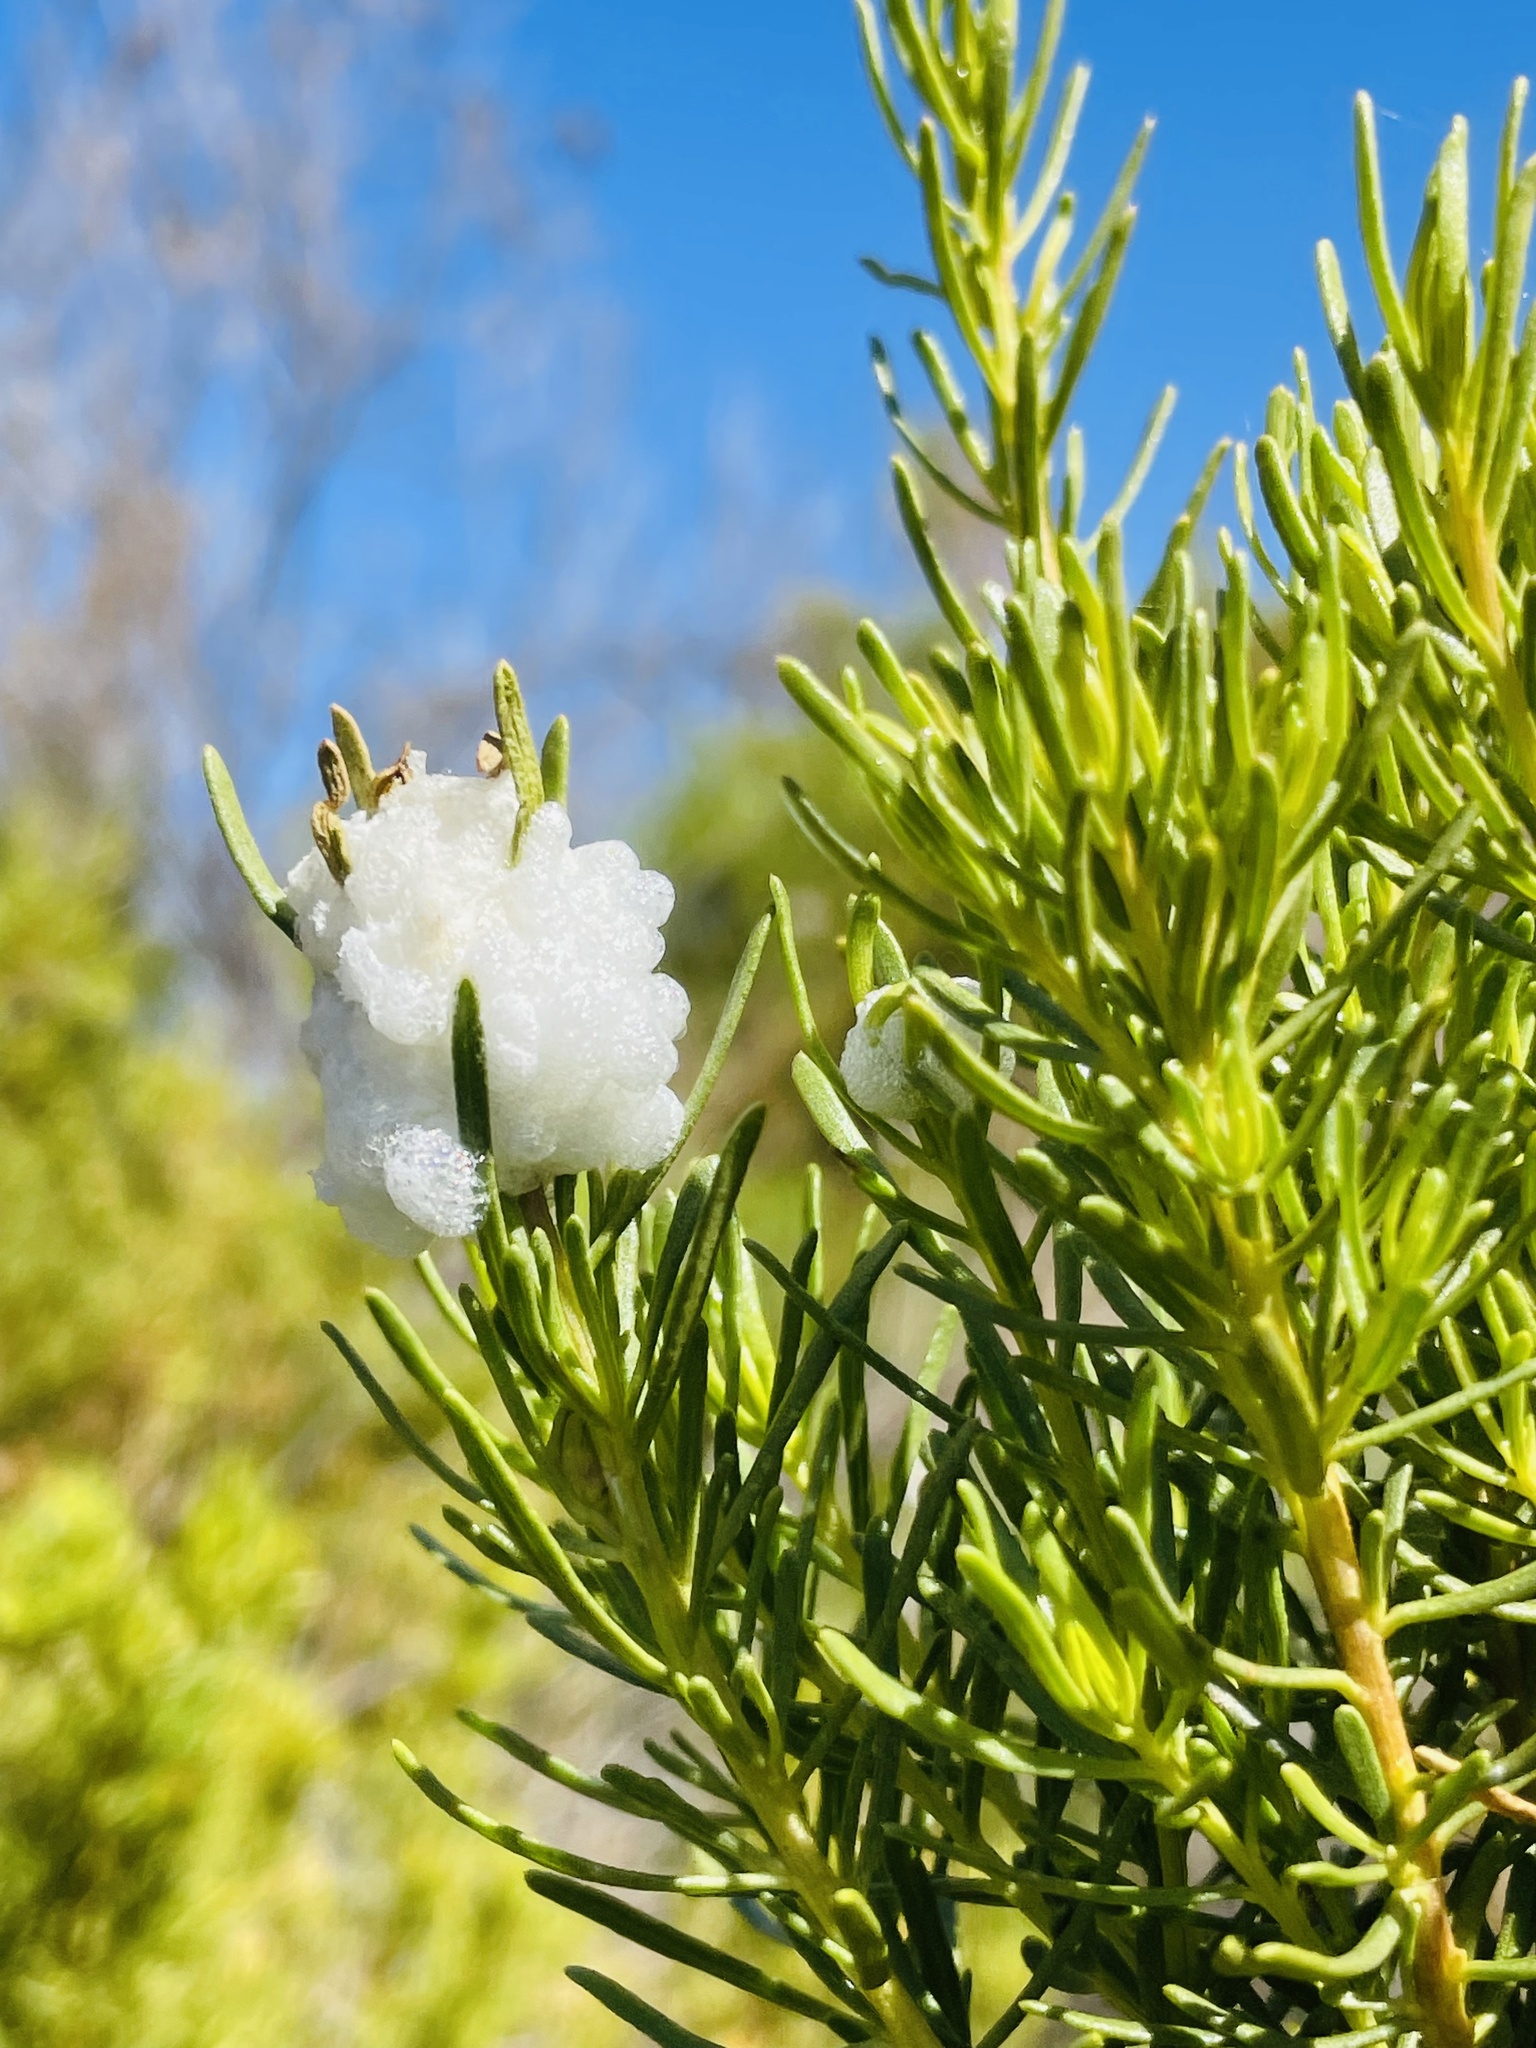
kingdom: Animalia
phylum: Arthropoda
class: Insecta
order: Diptera
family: Tephritidae
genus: Rachiptera
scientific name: Rachiptera limbata
